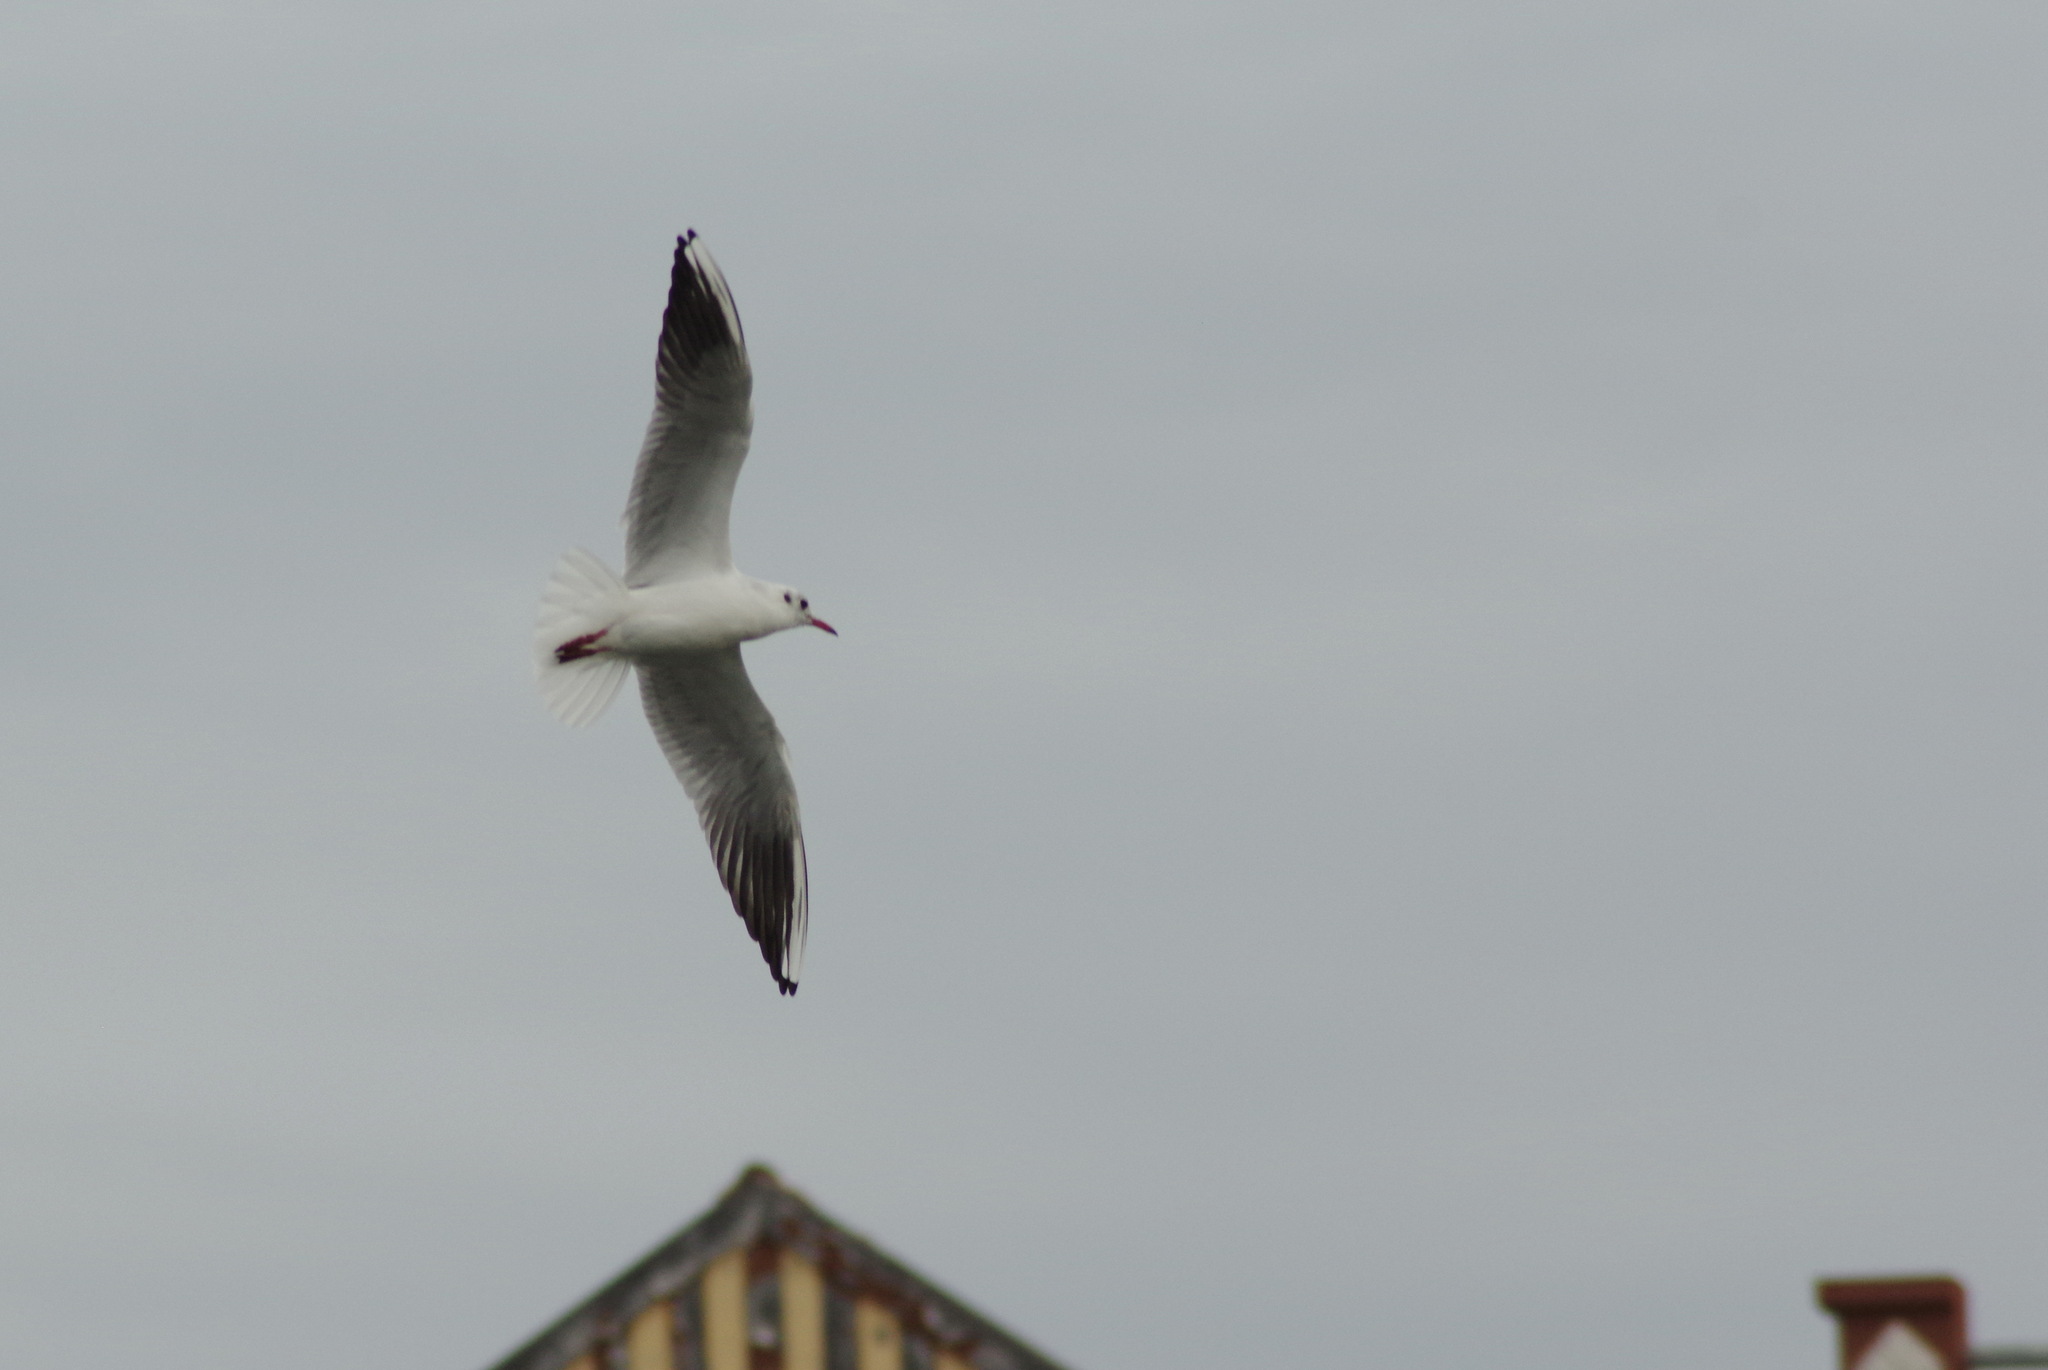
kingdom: Animalia
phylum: Chordata
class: Aves
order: Charadriiformes
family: Laridae
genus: Chroicocephalus
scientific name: Chroicocephalus ridibundus
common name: Black-headed gull
